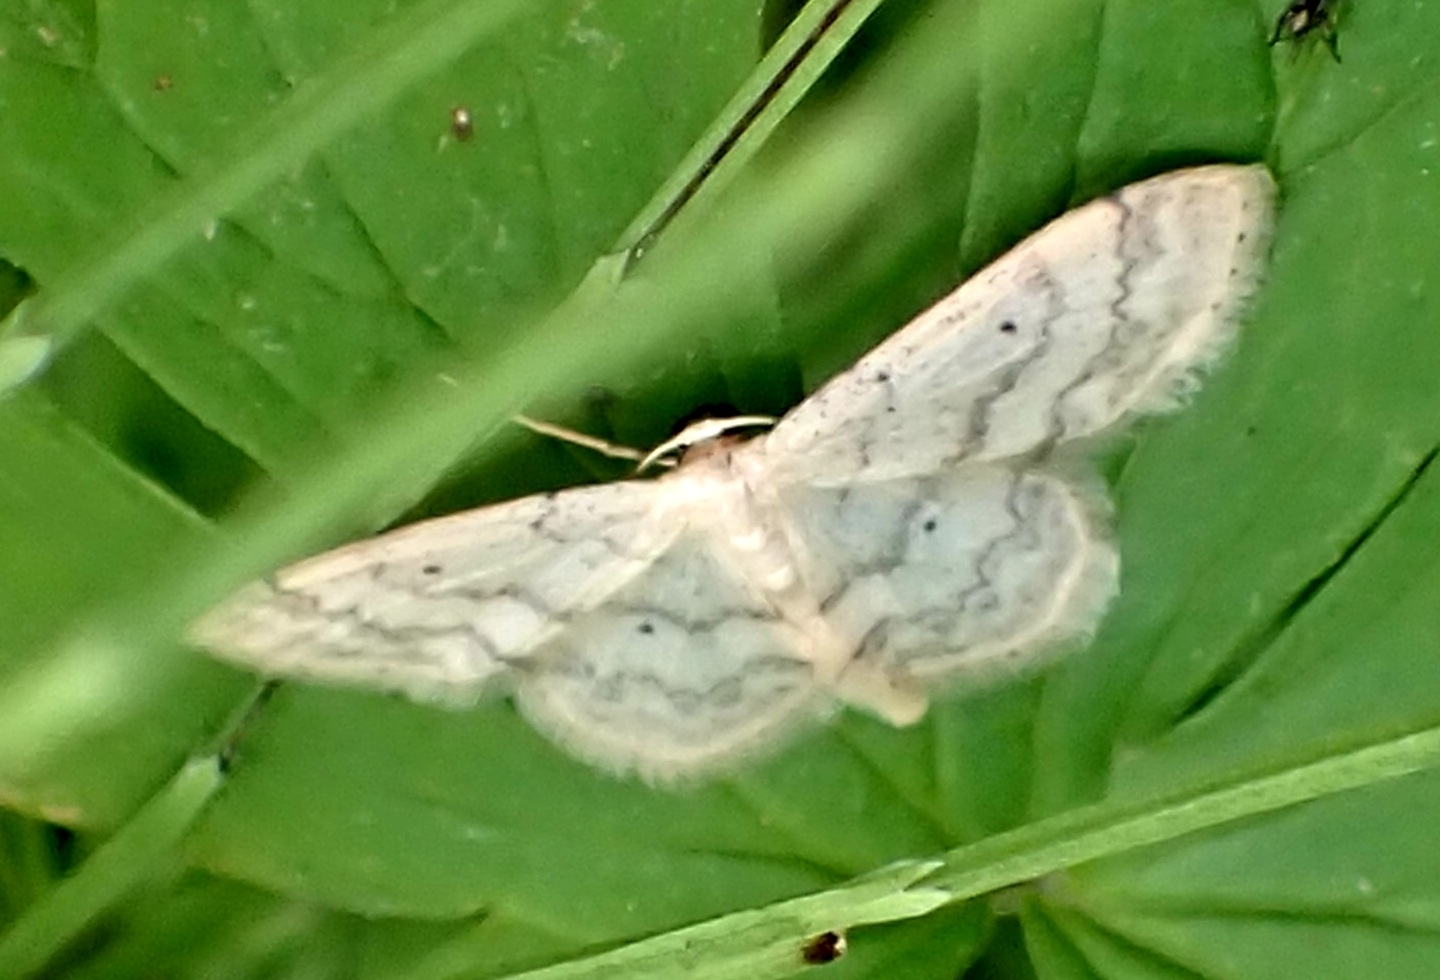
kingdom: Animalia
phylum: Arthropoda
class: Insecta
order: Lepidoptera
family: Geometridae
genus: Idaea
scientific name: Idaea biselata
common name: Small fan-footed wave
